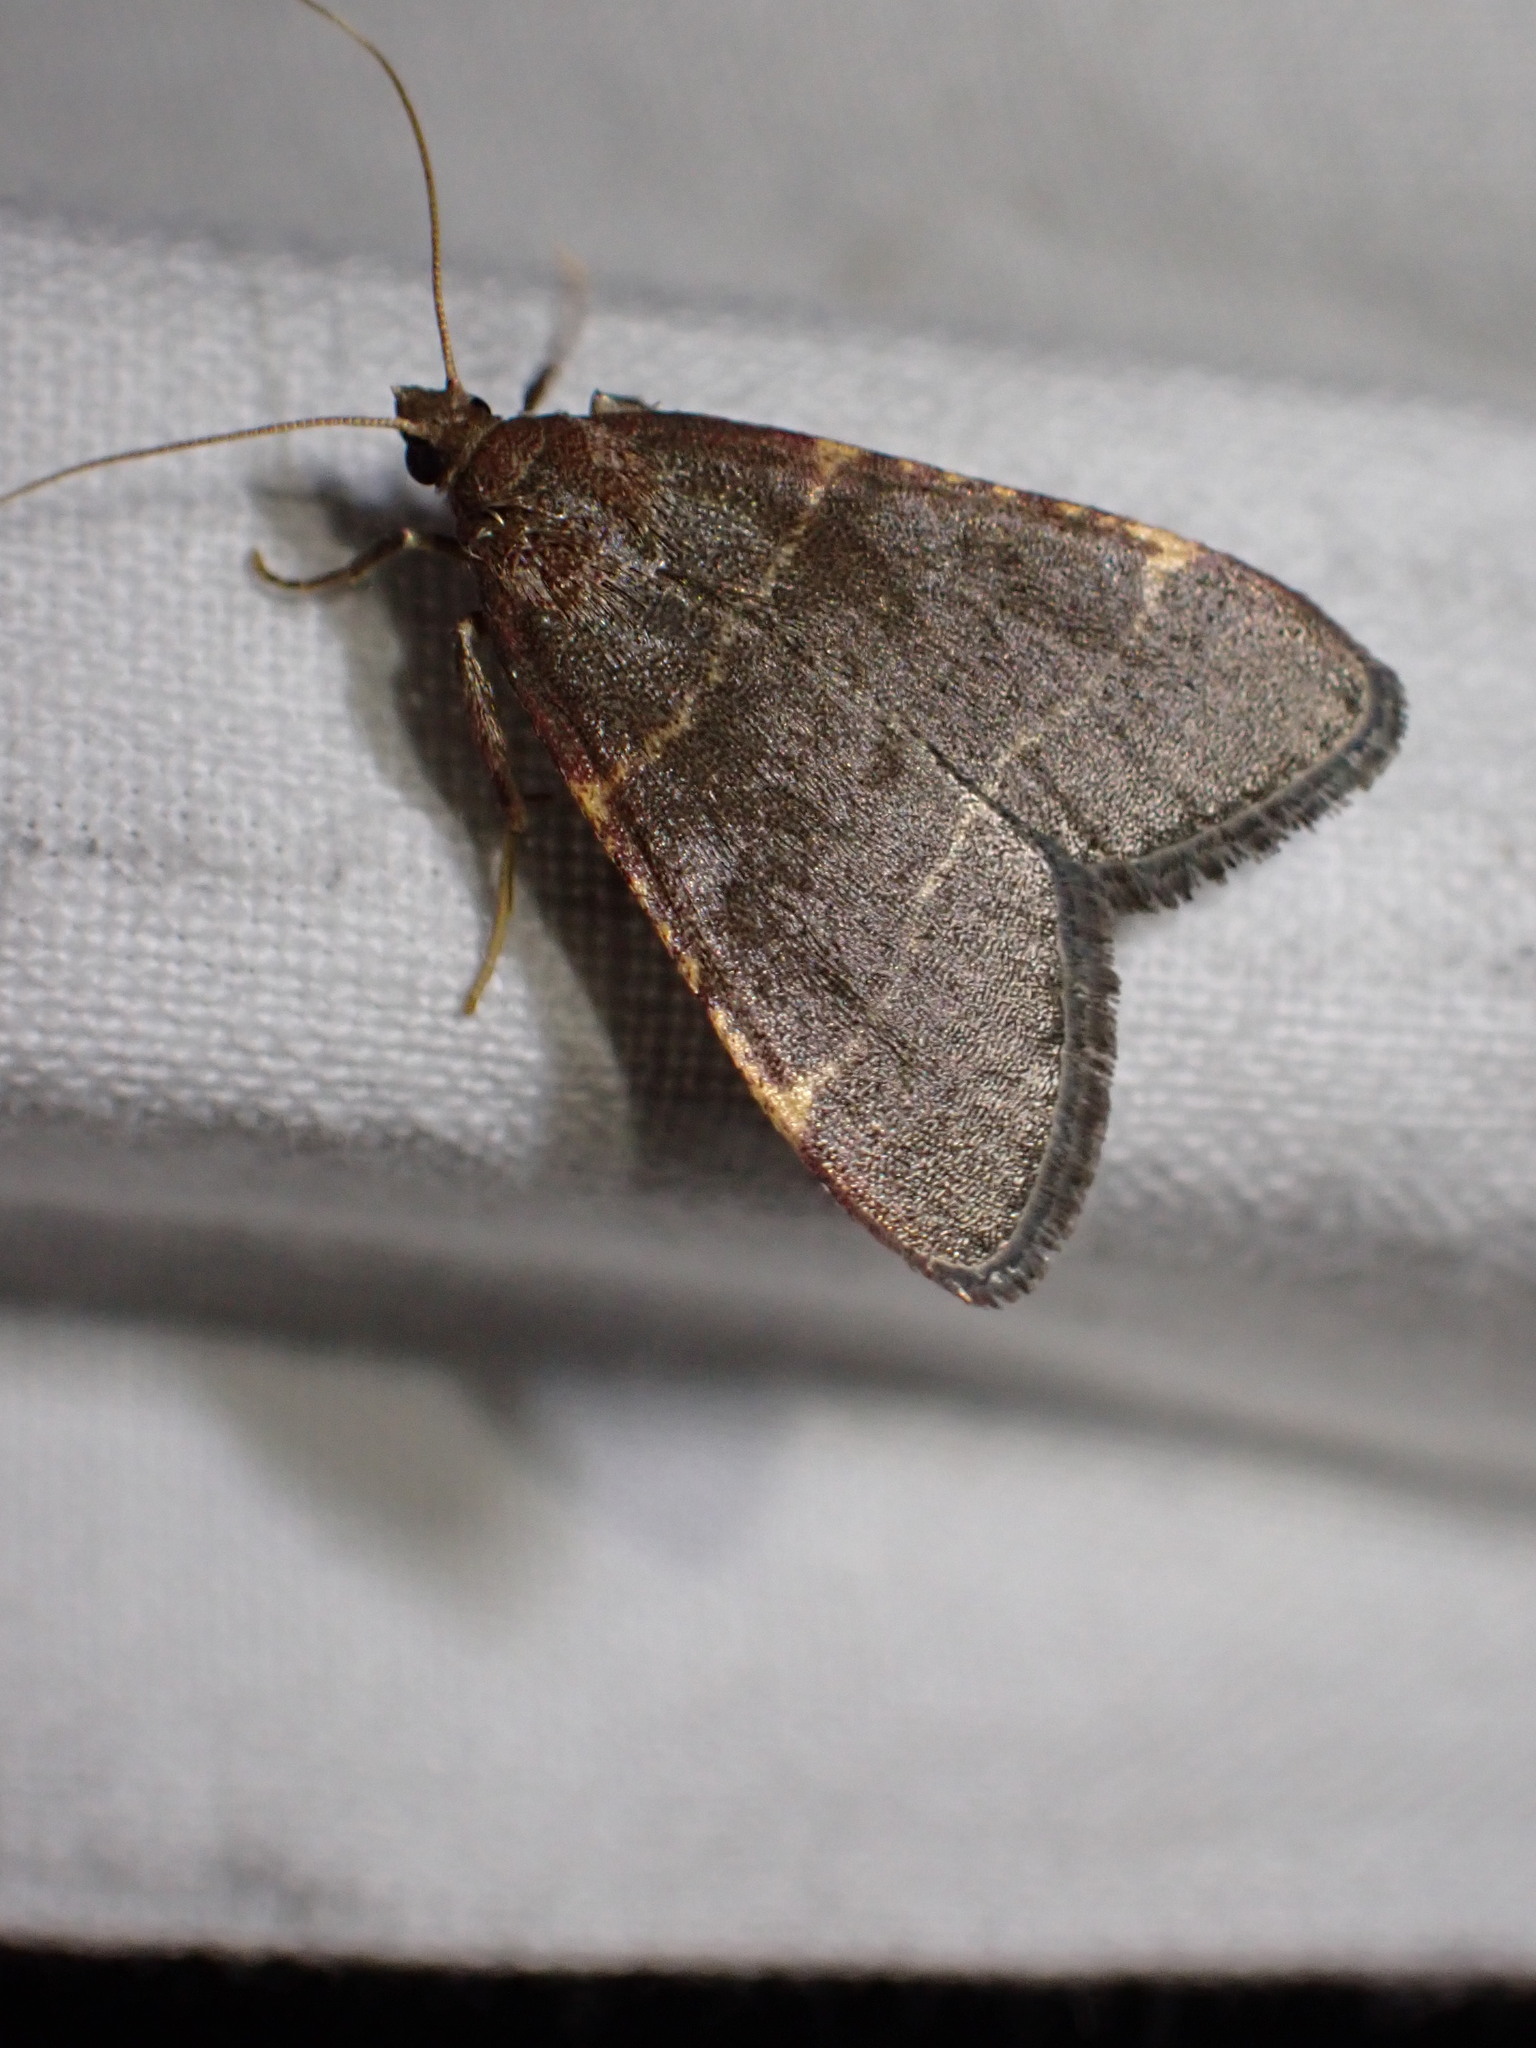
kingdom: Animalia
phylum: Arthropoda
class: Insecta
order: Lepidoptera
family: Pyralidae
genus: Hypsopygia
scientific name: Hypsopygia glaucinalis
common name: Double-striped tabby
